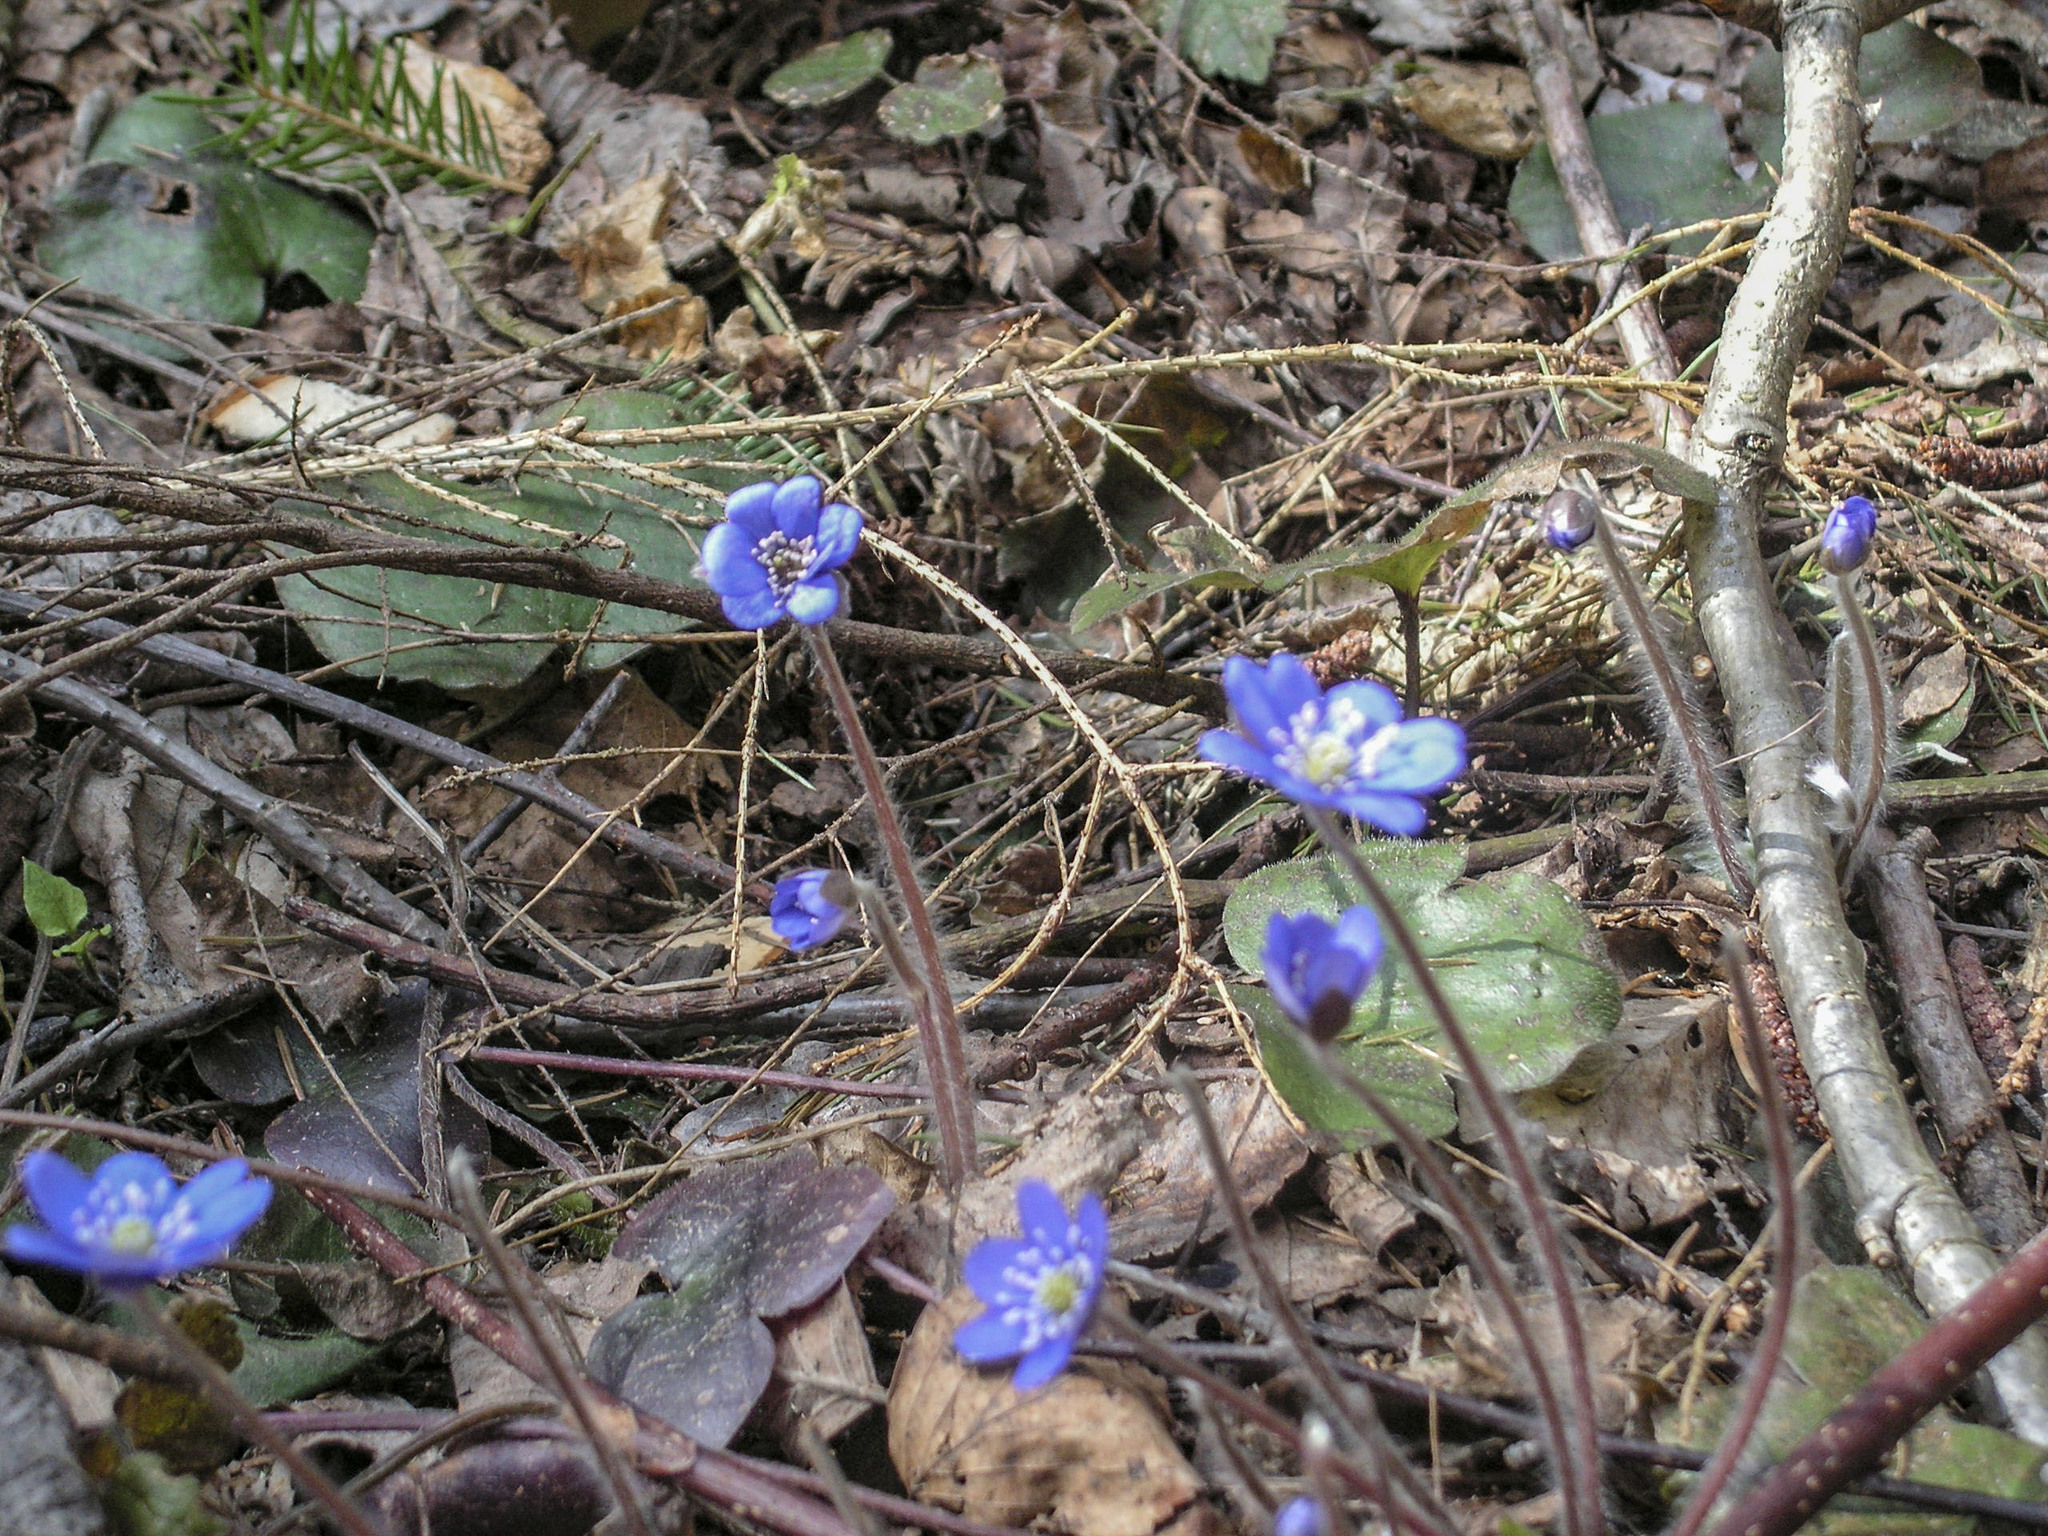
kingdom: Plantae
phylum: Tracheophyta
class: Magnoliopsida
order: Ranunculales
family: Ranunculaceae
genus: Hepatica
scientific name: Hepatica nobilis
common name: Liverleaf
